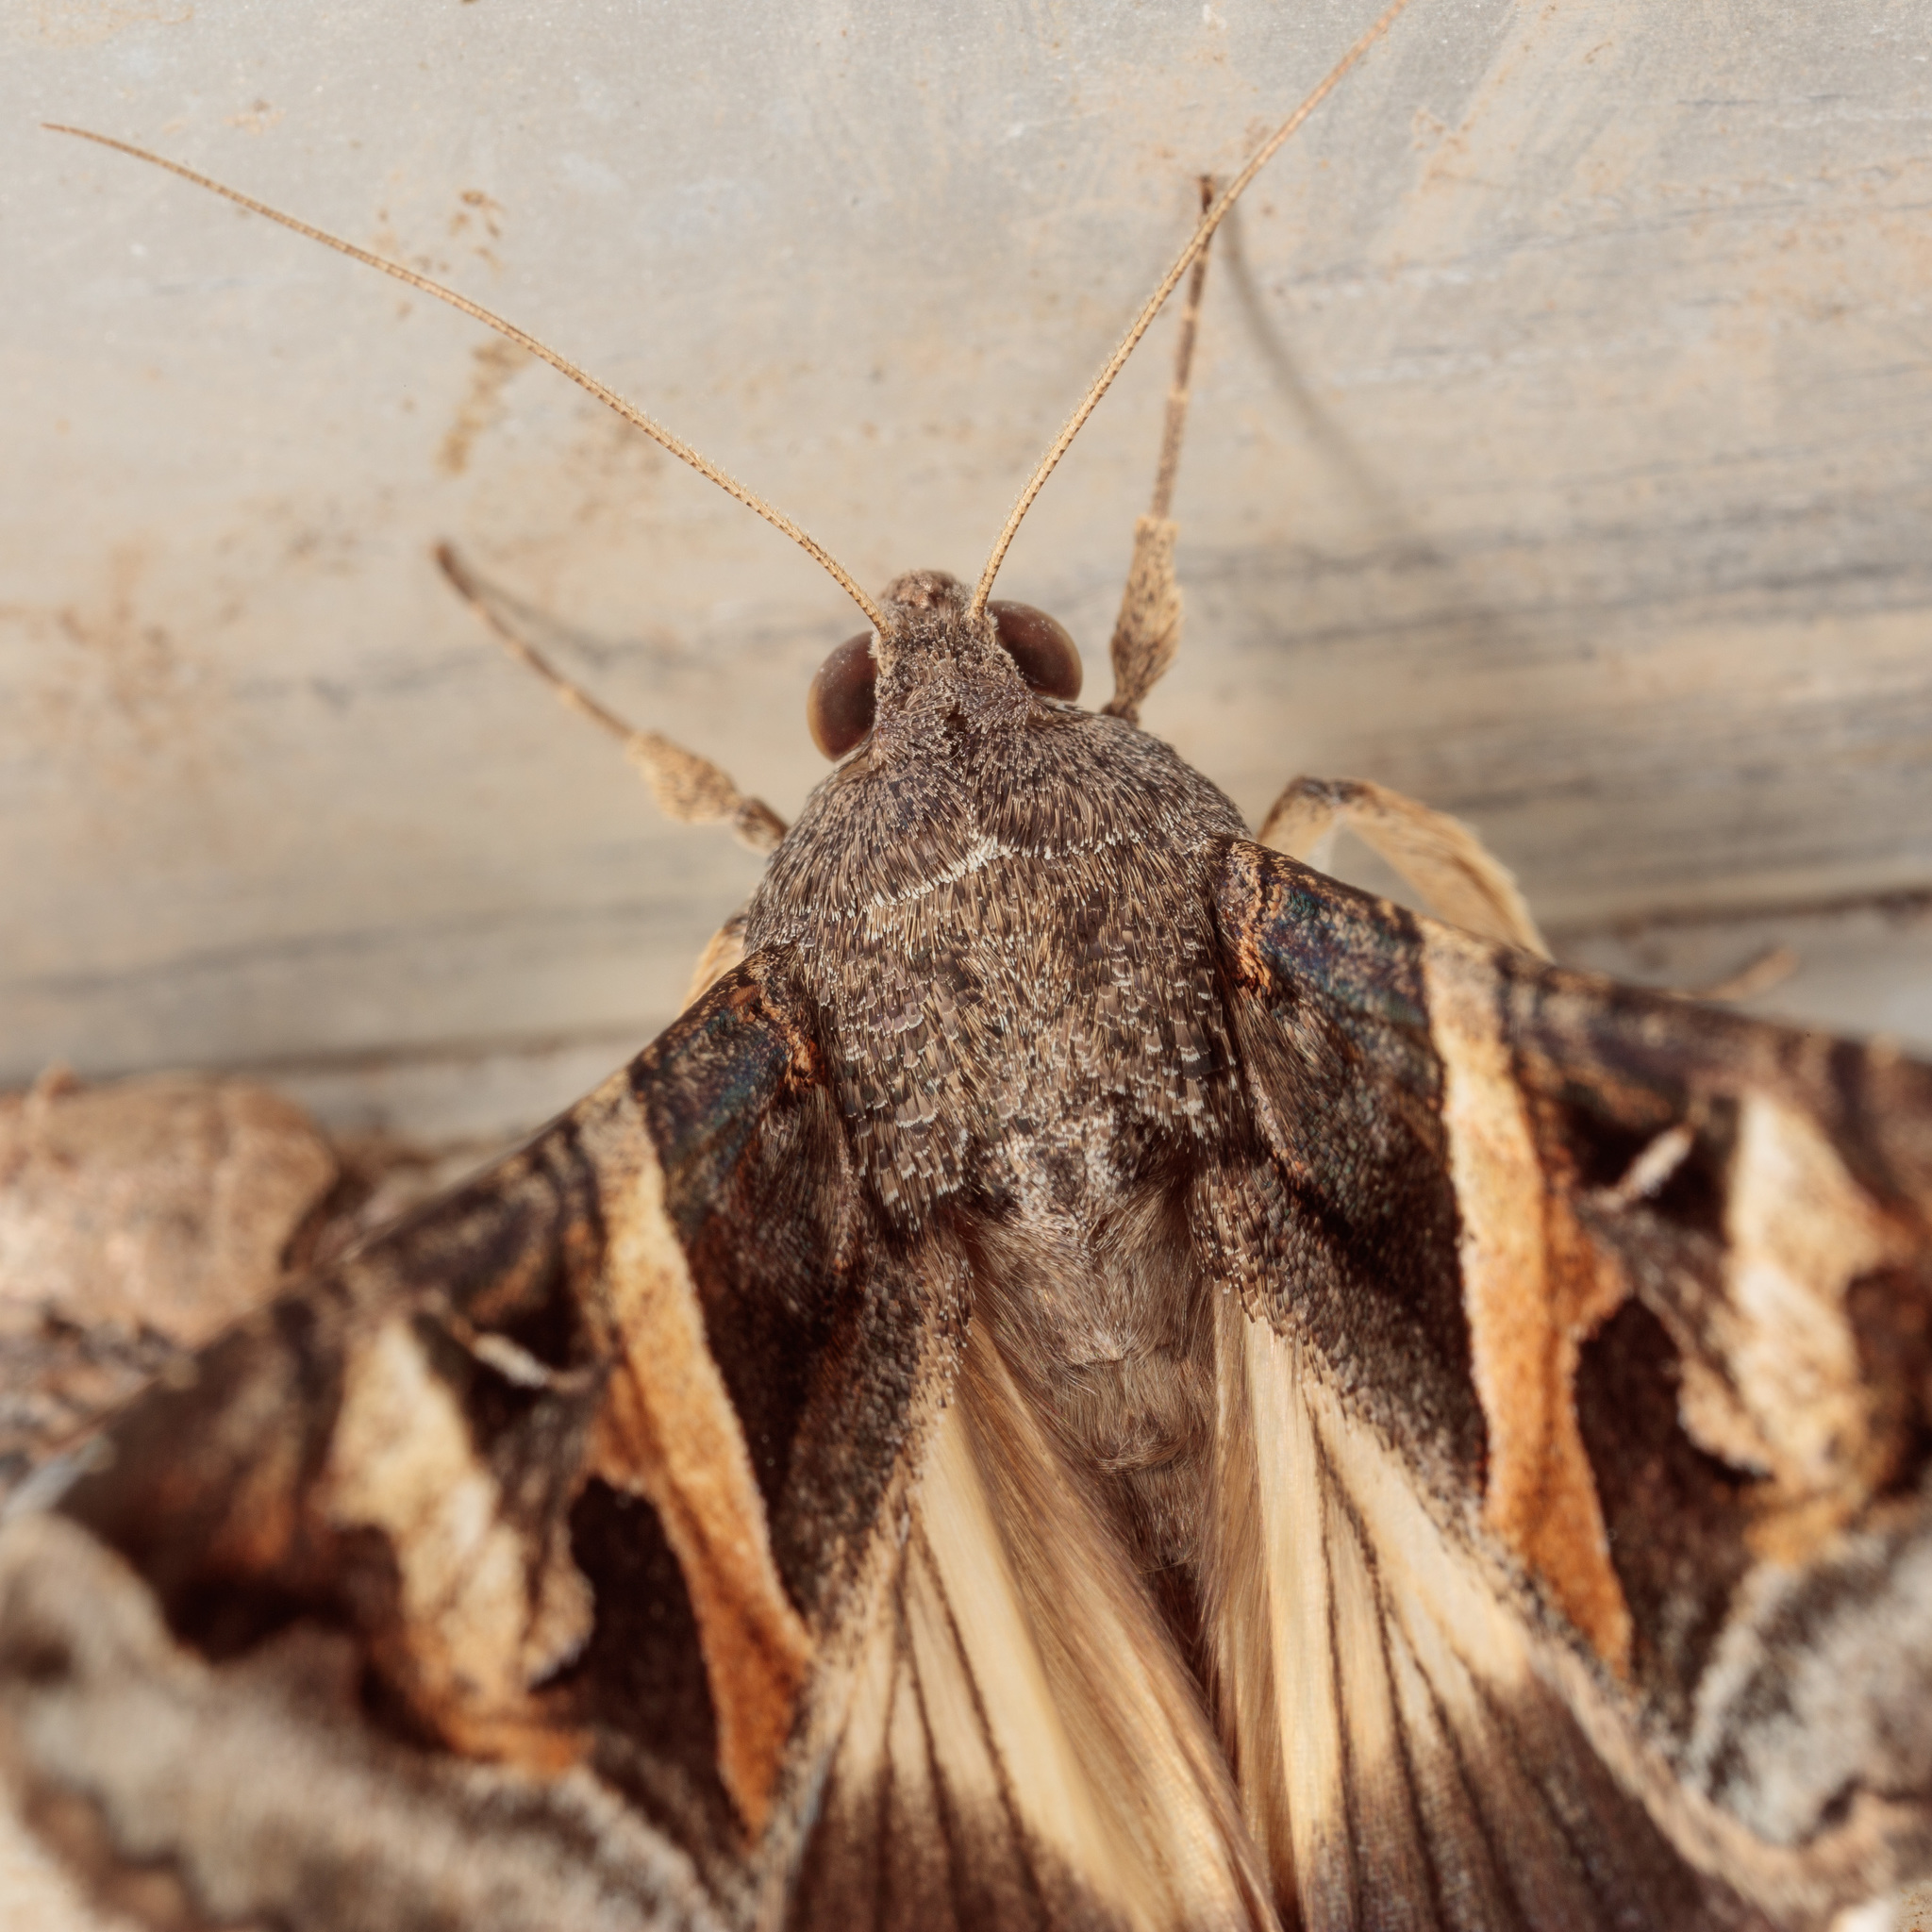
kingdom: Animalia
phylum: Arthropoda
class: Insecta
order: Lepidoptera
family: Erebidae
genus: Melipotis
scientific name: Melipotis indomita
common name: Moth
